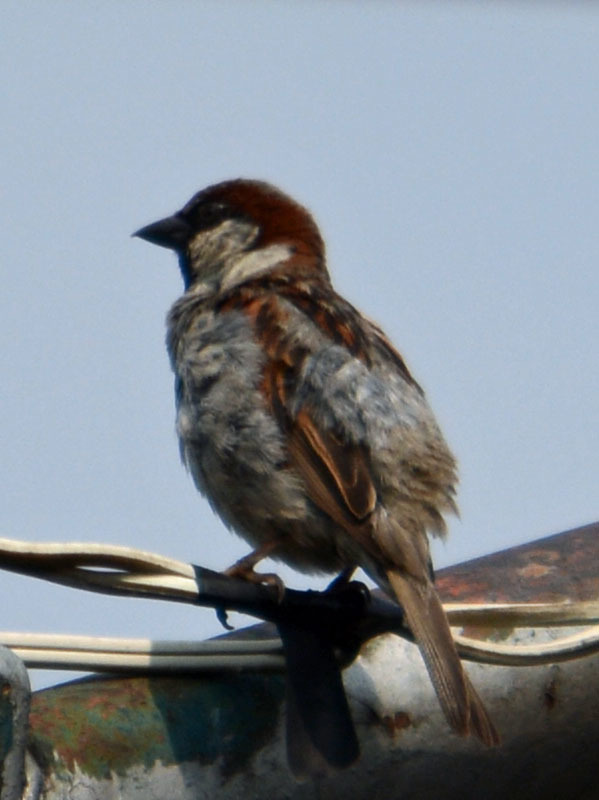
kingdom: Animalia
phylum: Chordata
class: Aves
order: Passeriformes
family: Passeridae
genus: Passer
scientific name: Passer domesticus
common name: House sparrow
